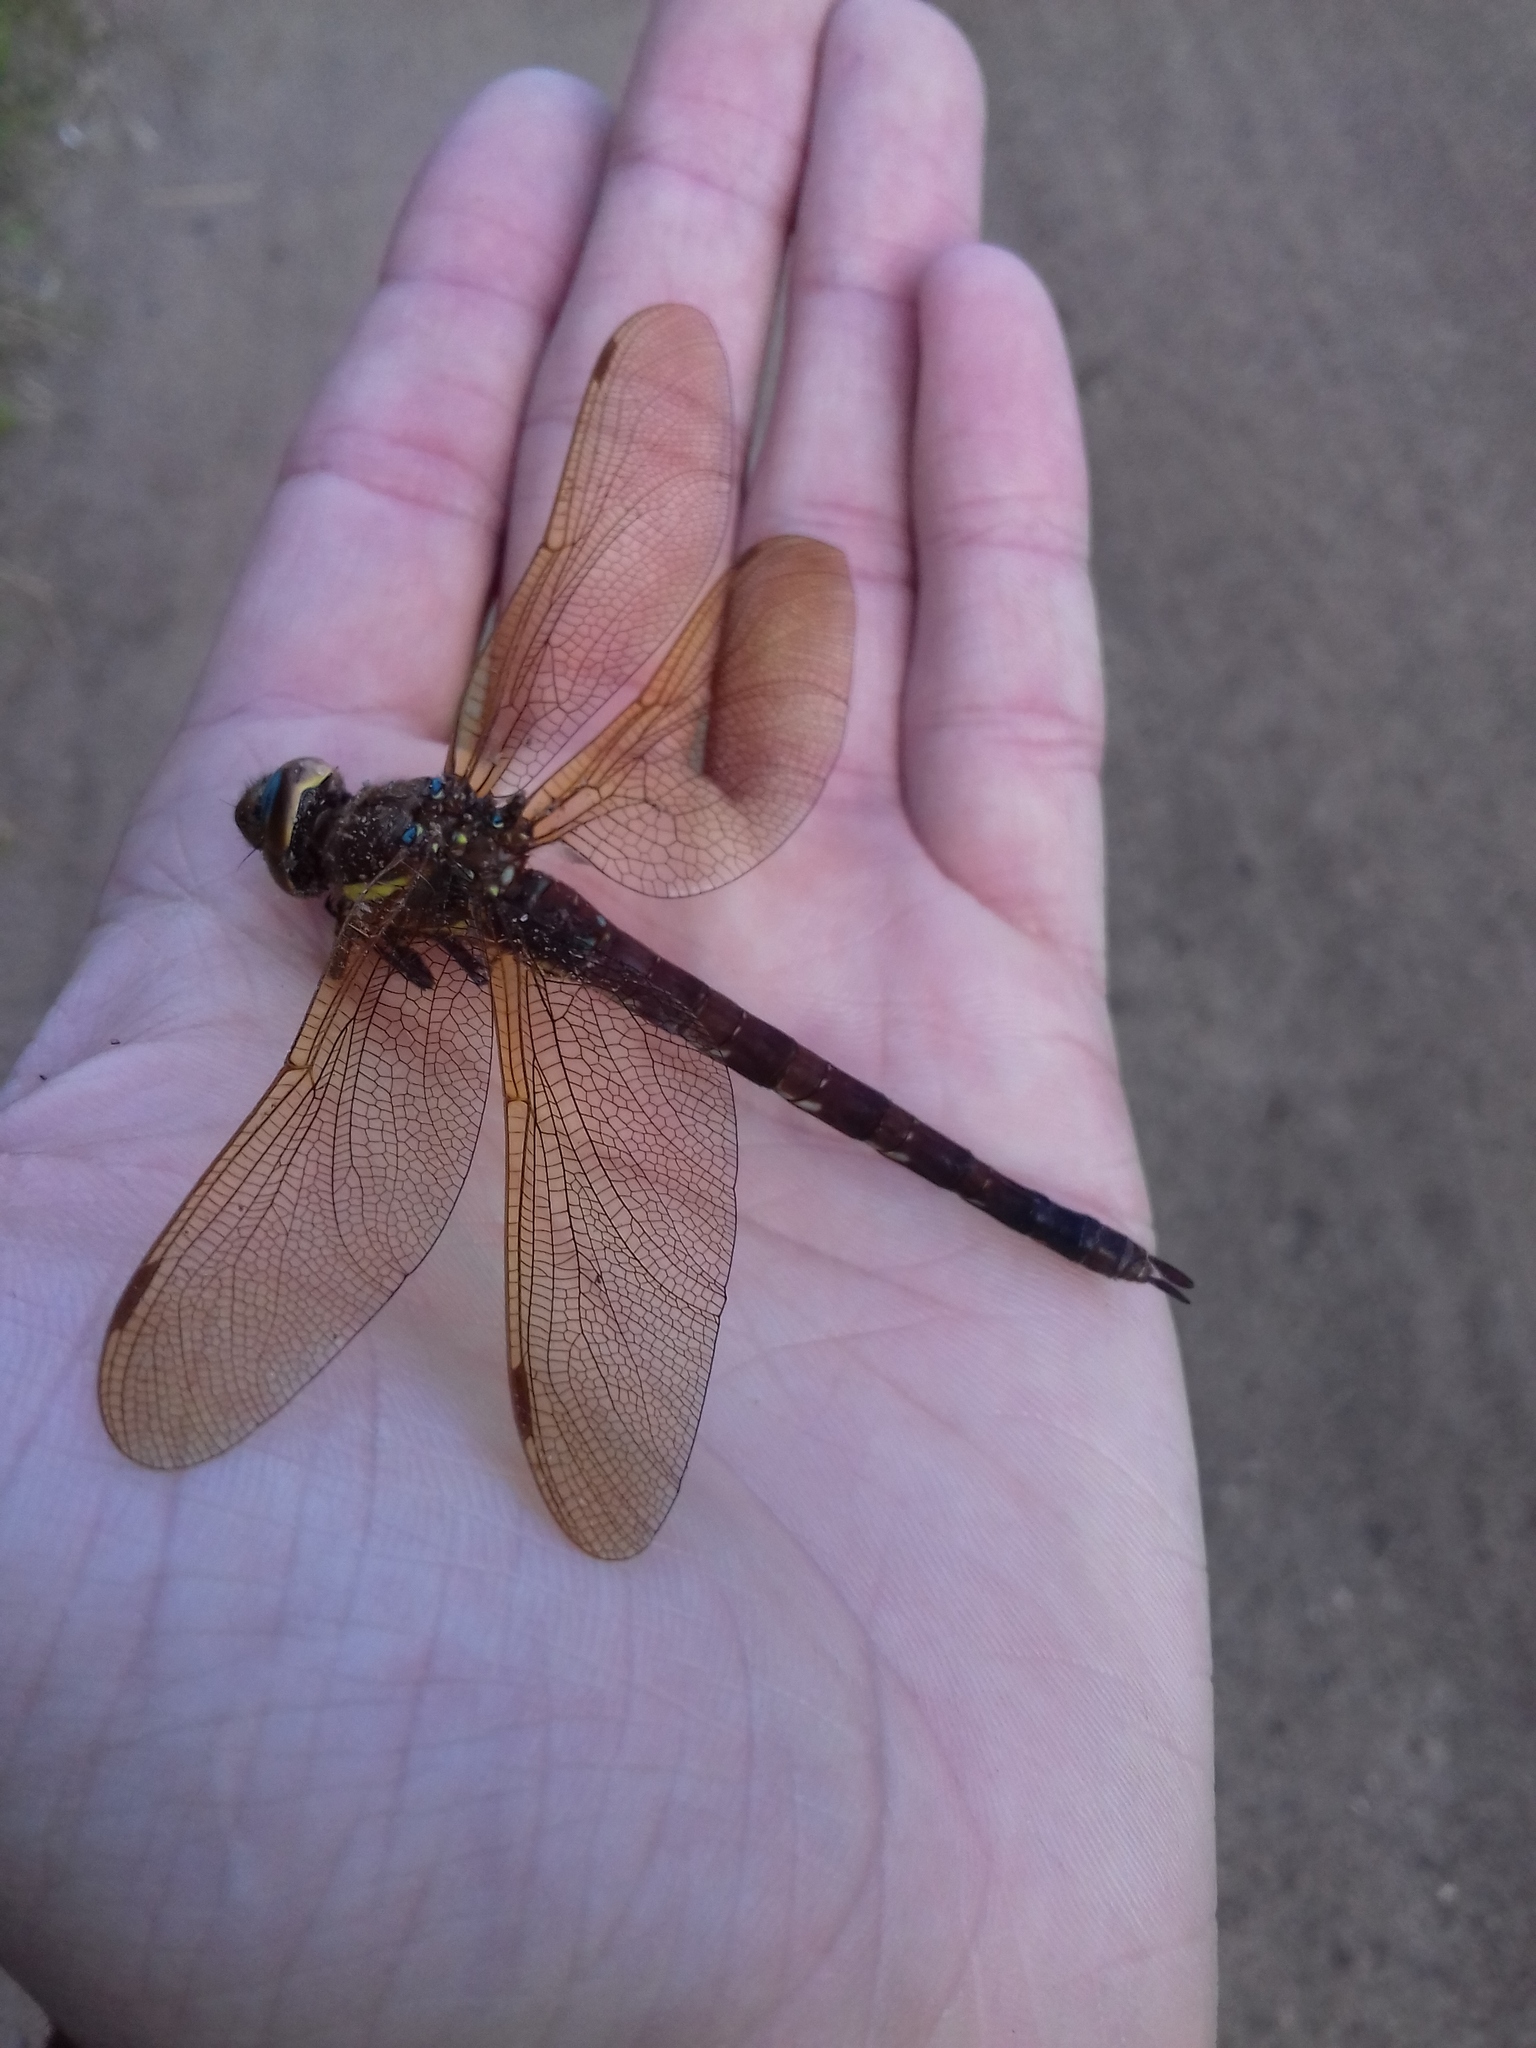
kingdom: Animalia
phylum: Arthropoda
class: Insecta
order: Odonata
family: Aeshnidae
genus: Aeshna
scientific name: Aeshna grandis
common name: Brown hawker
